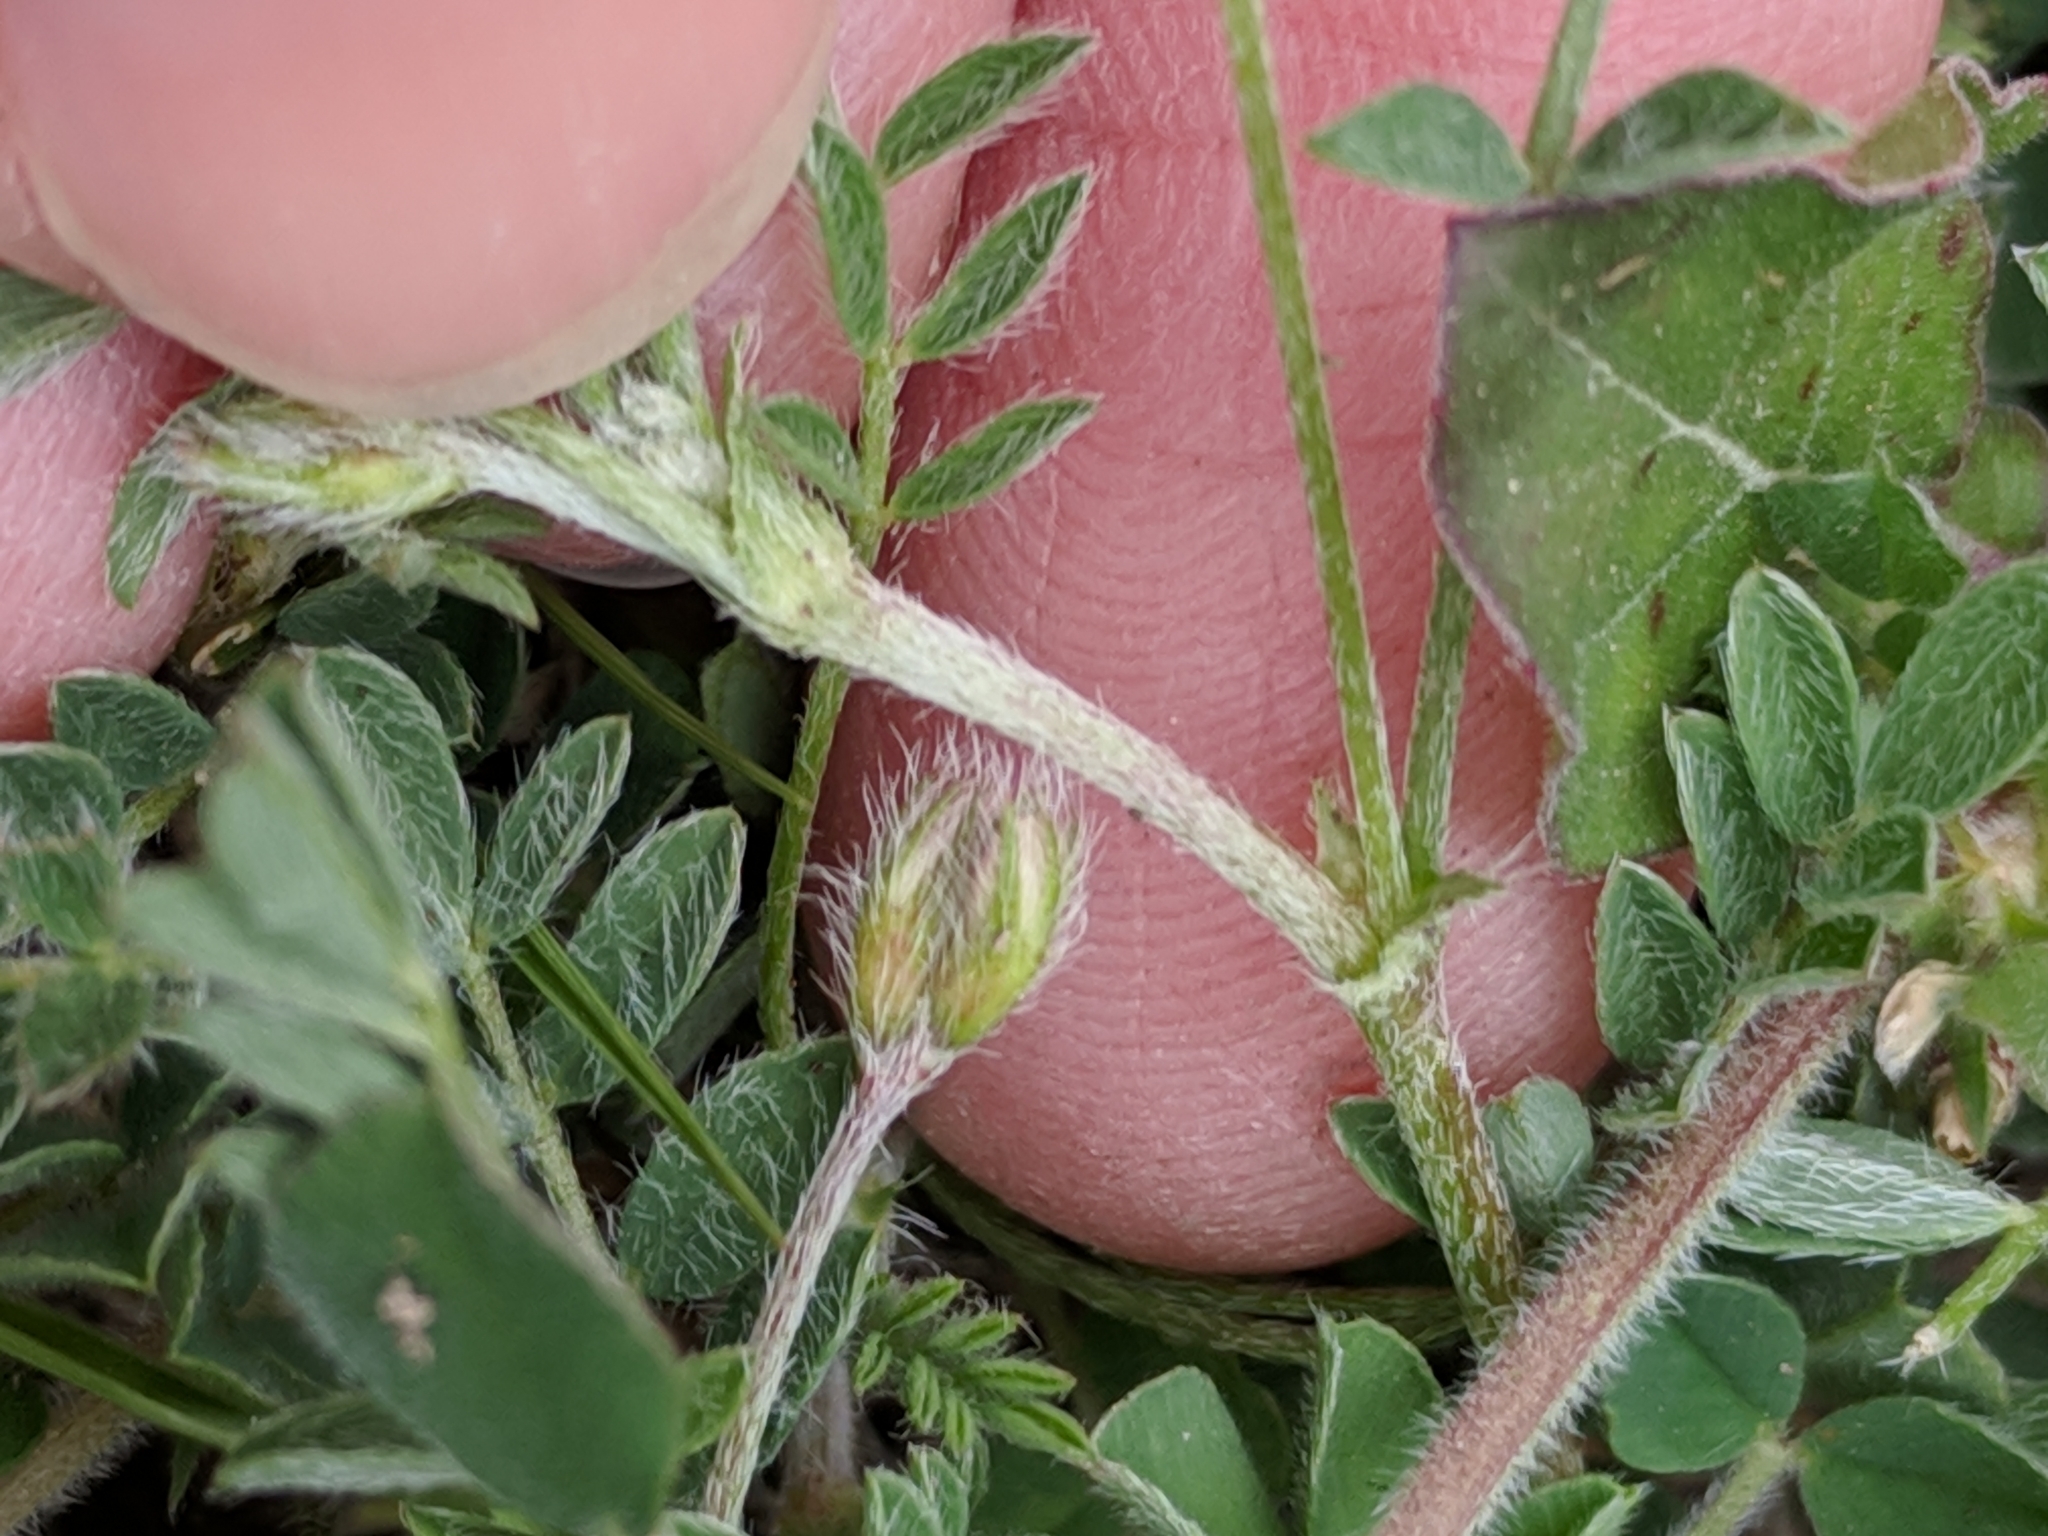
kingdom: Plantae
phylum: Tracheophyta
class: Magnoliopsida
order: Fabales
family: Fabaceae
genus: Astragalus
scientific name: Astragalus nuttallianus
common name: Smallflowered milkvetch
